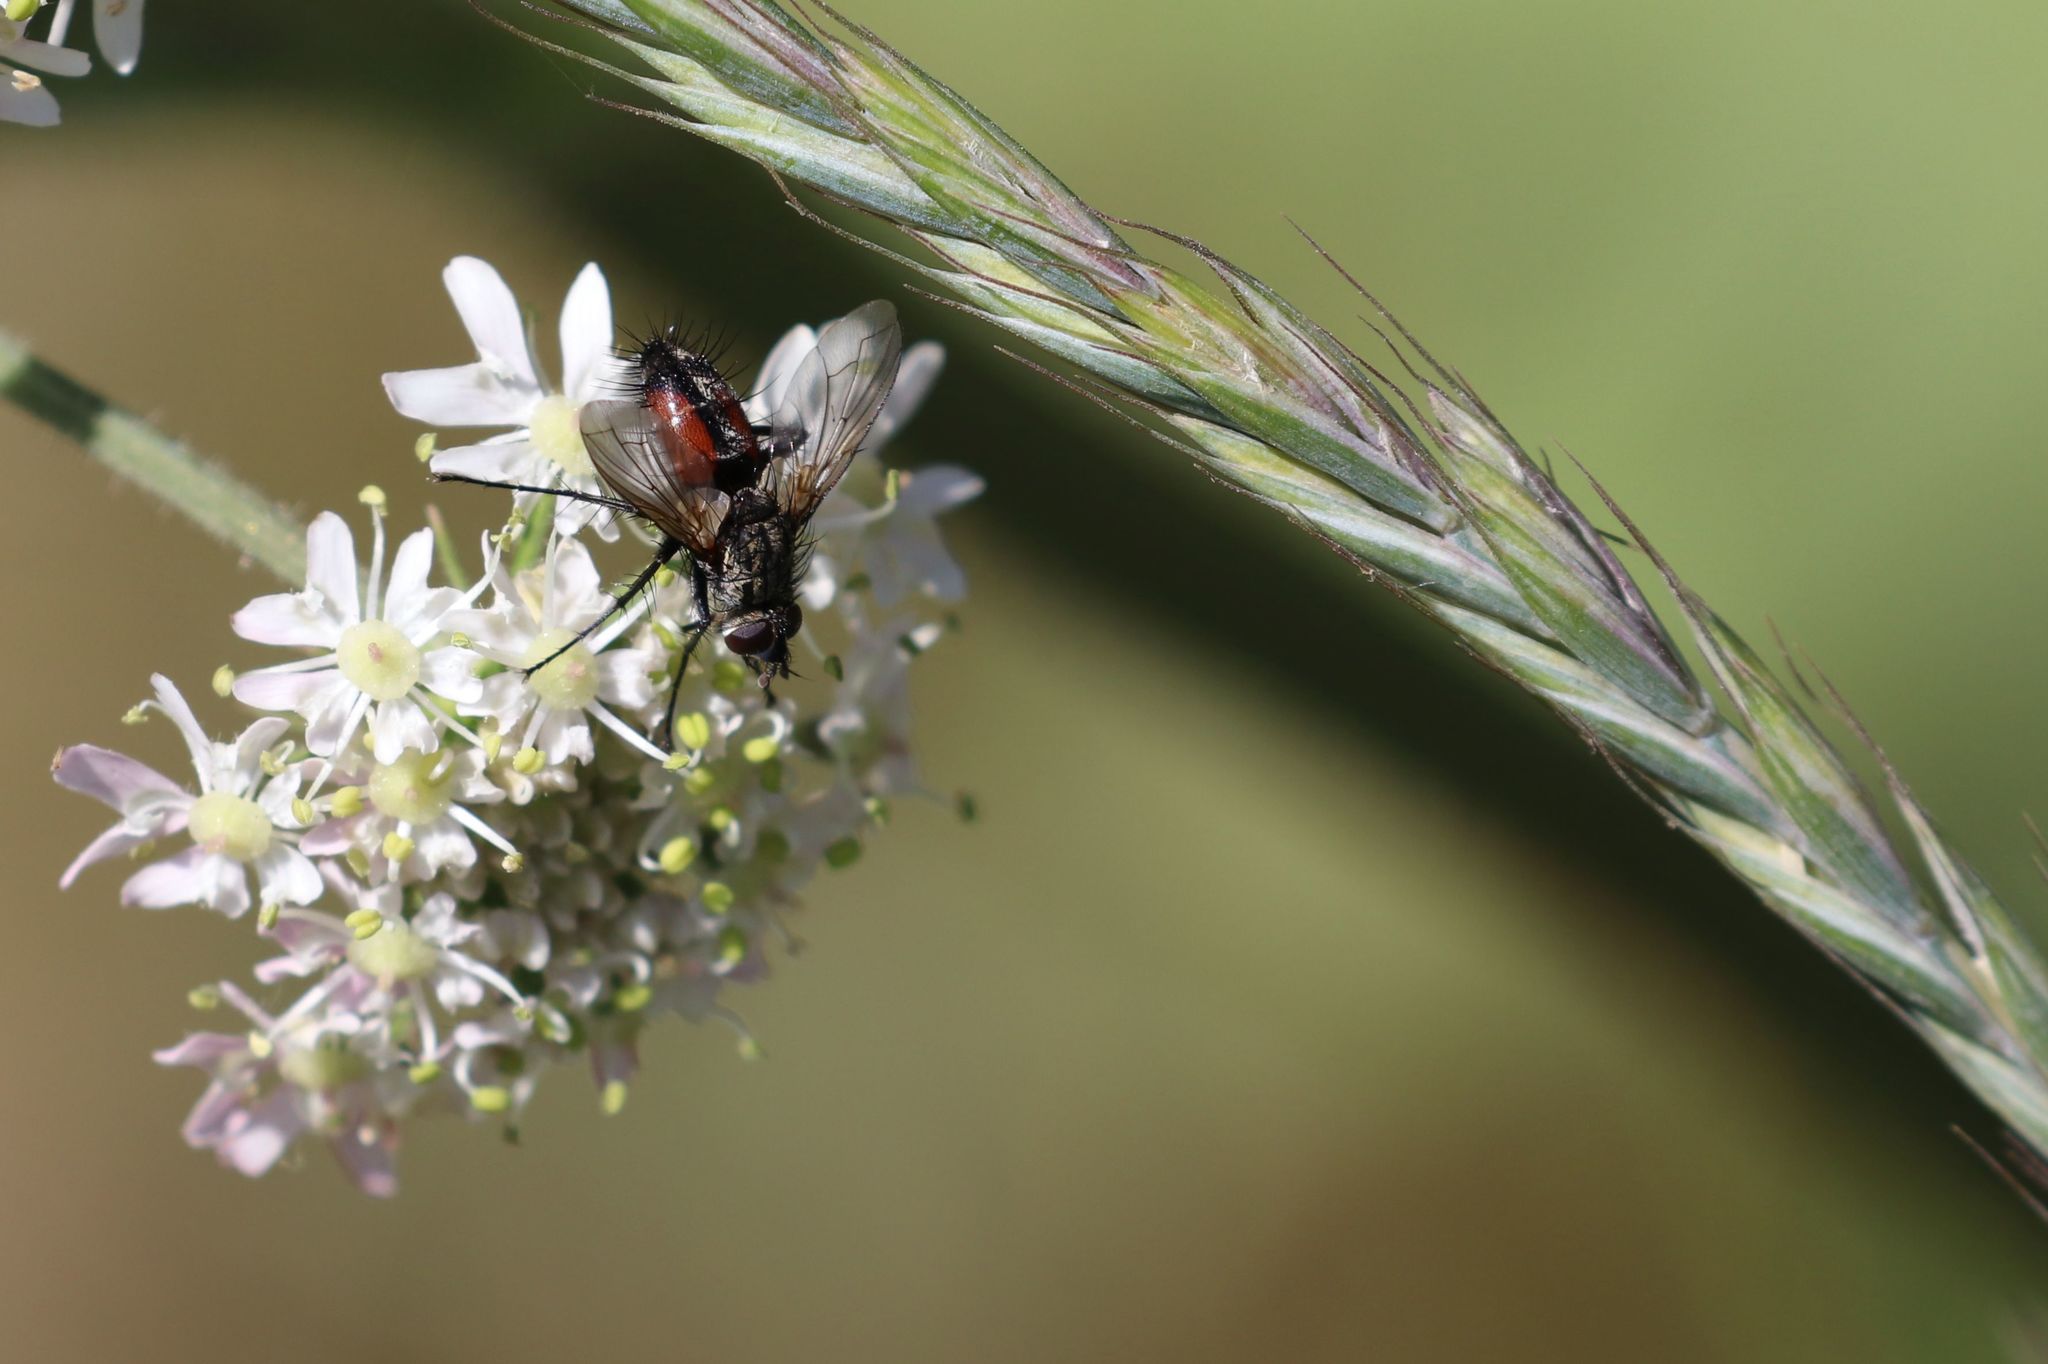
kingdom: Animalia
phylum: Arthropoda
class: Insecta
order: Diptera
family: Tachinidae
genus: Eriothrix
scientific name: Eriothrix rufomaculatus
